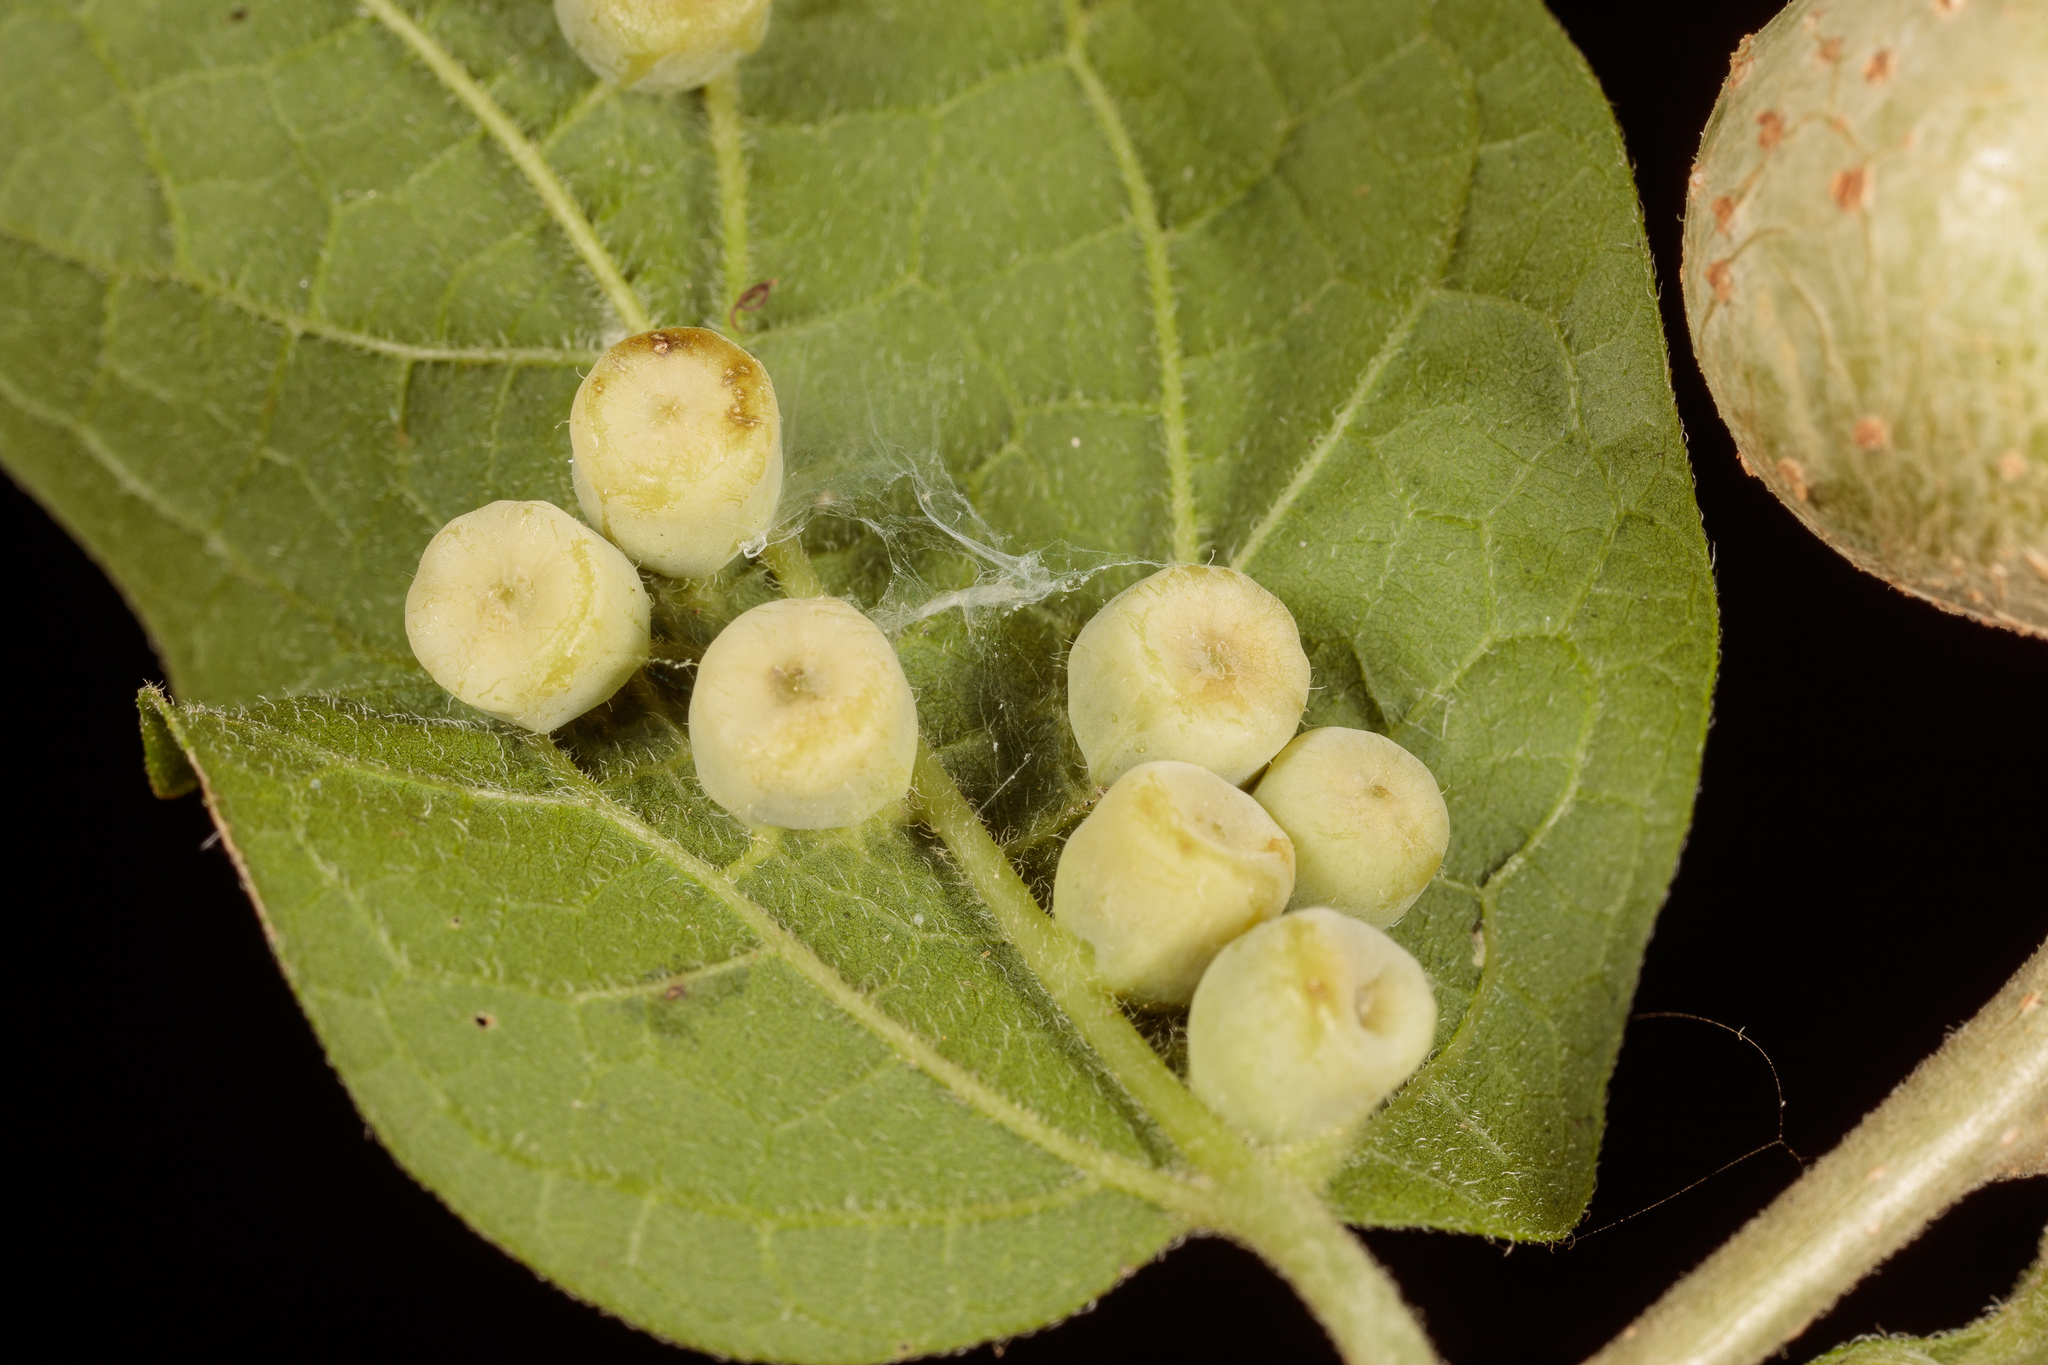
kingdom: Animalia
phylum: Arthropoda
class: Insecta
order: Hemiptera
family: Aphalaridae
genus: Pachypsylla
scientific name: Pachypsylla celtidismamma
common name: Hackberry nipplegall psyllid
